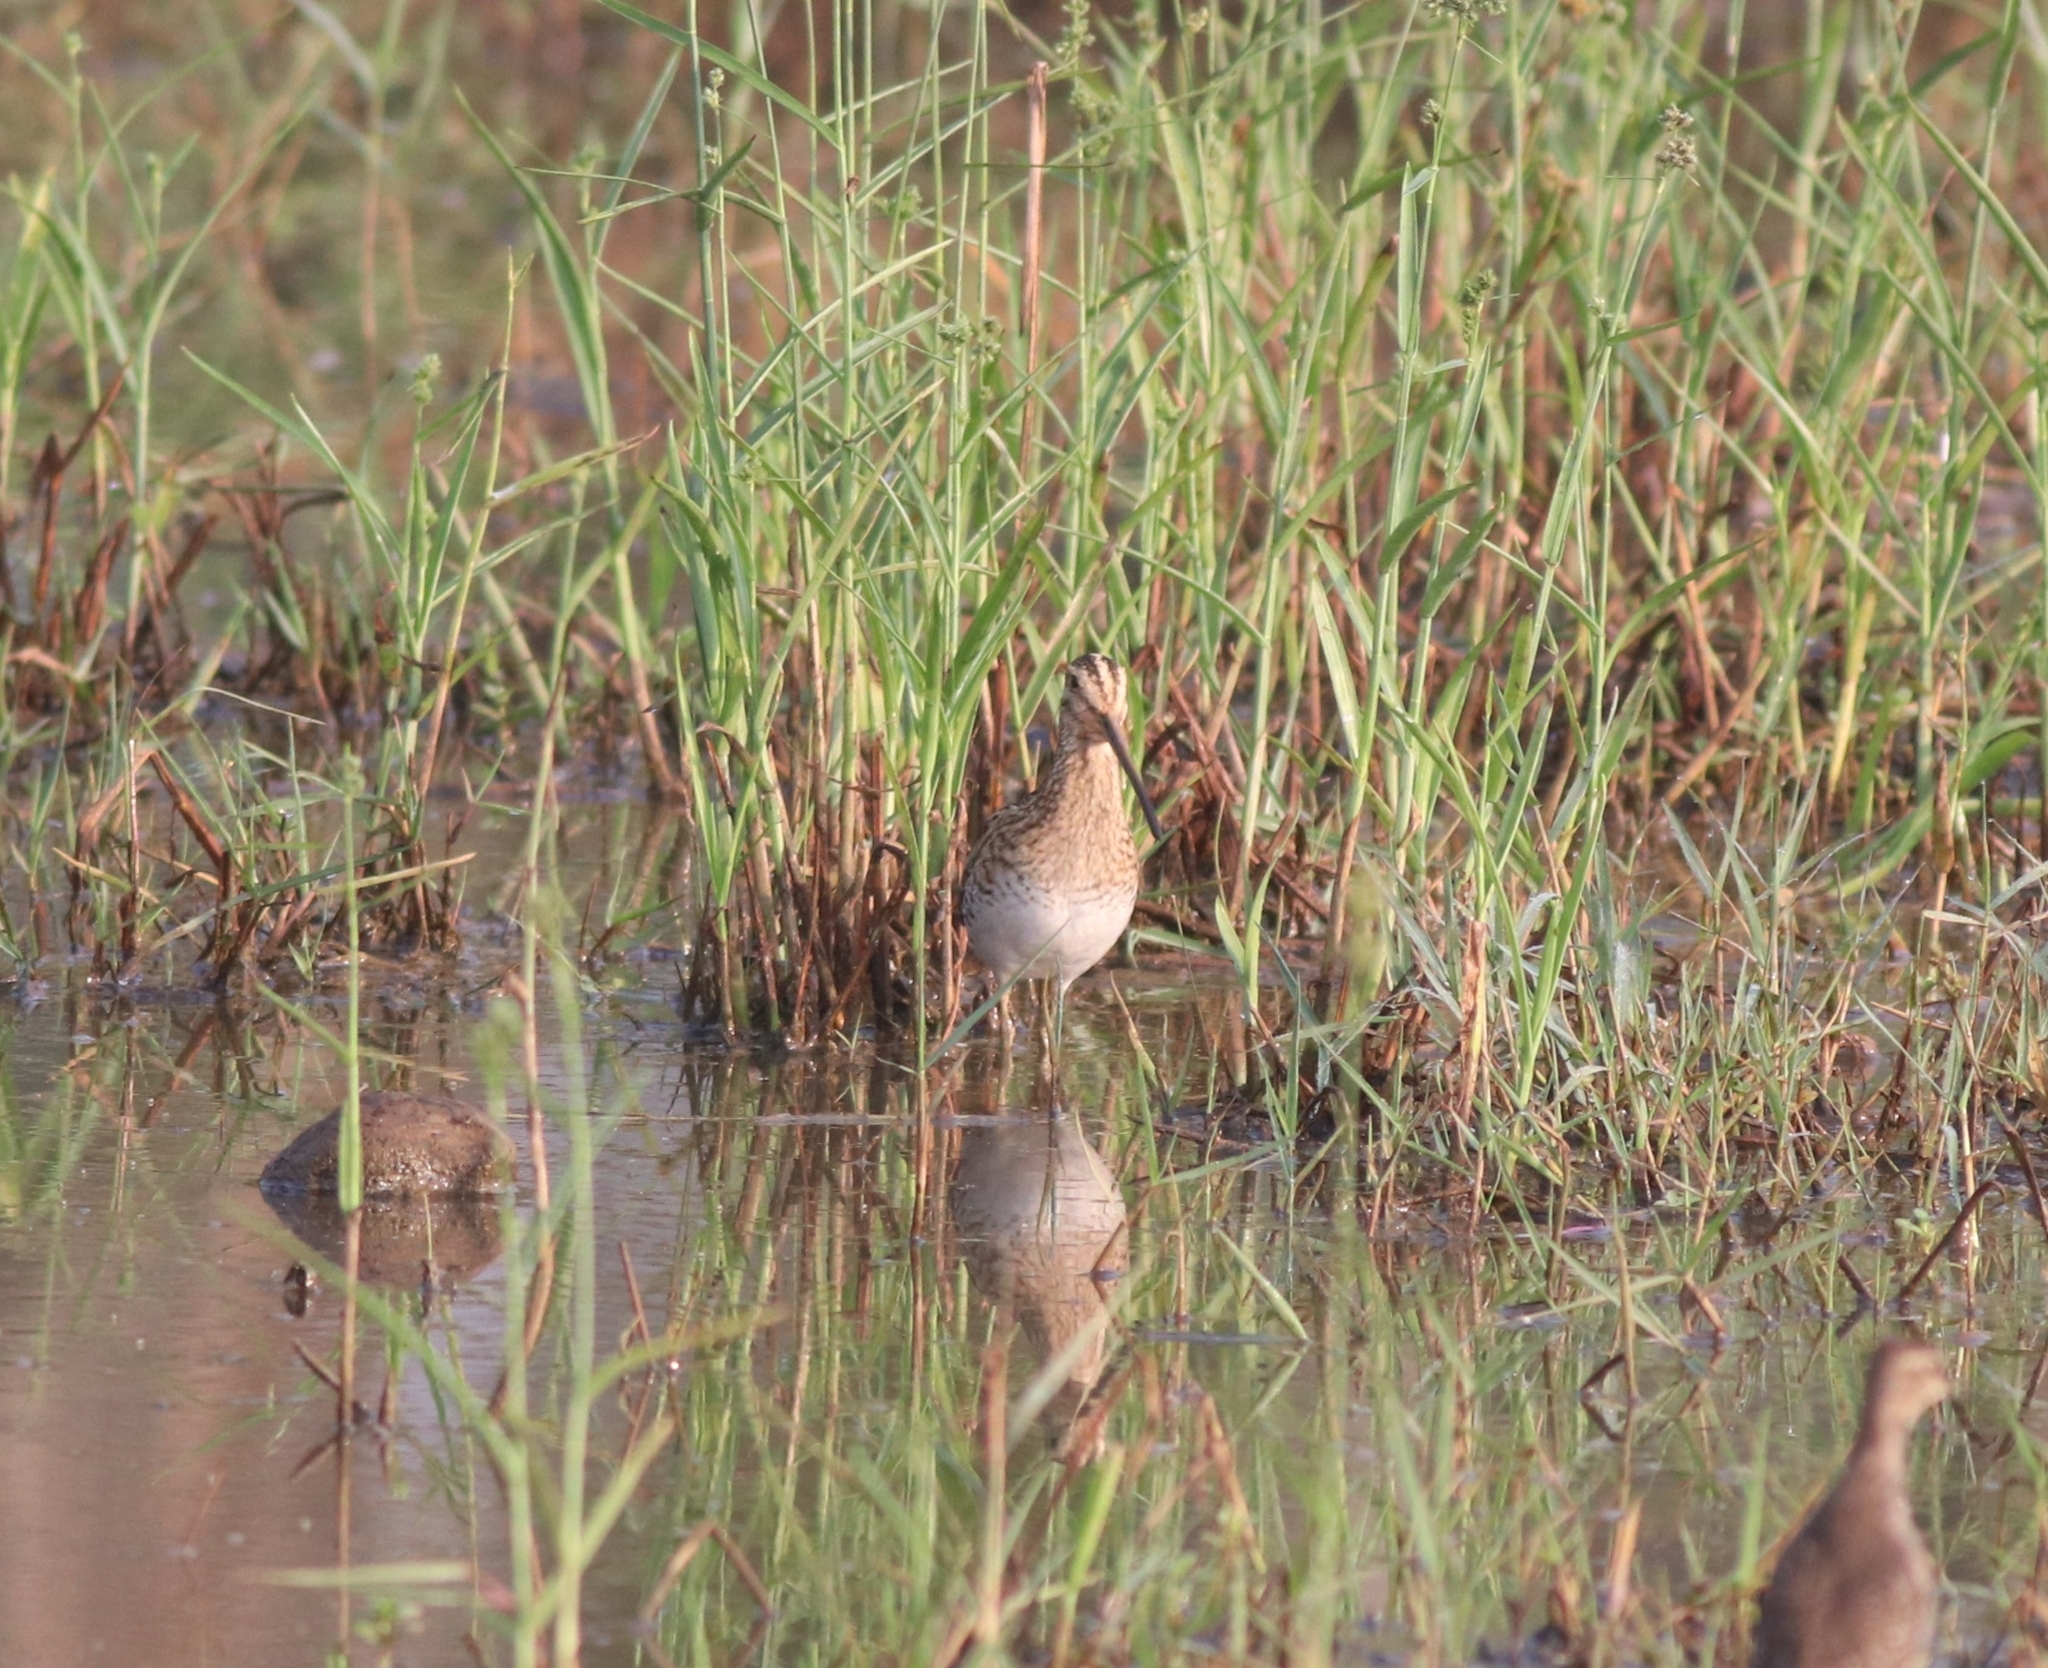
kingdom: Animalia
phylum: Chordata
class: Aves
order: Charadriiformes
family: Scolopacidae
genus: Gallinago
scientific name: Gallinago stenura
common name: Pin-tailed snipe
